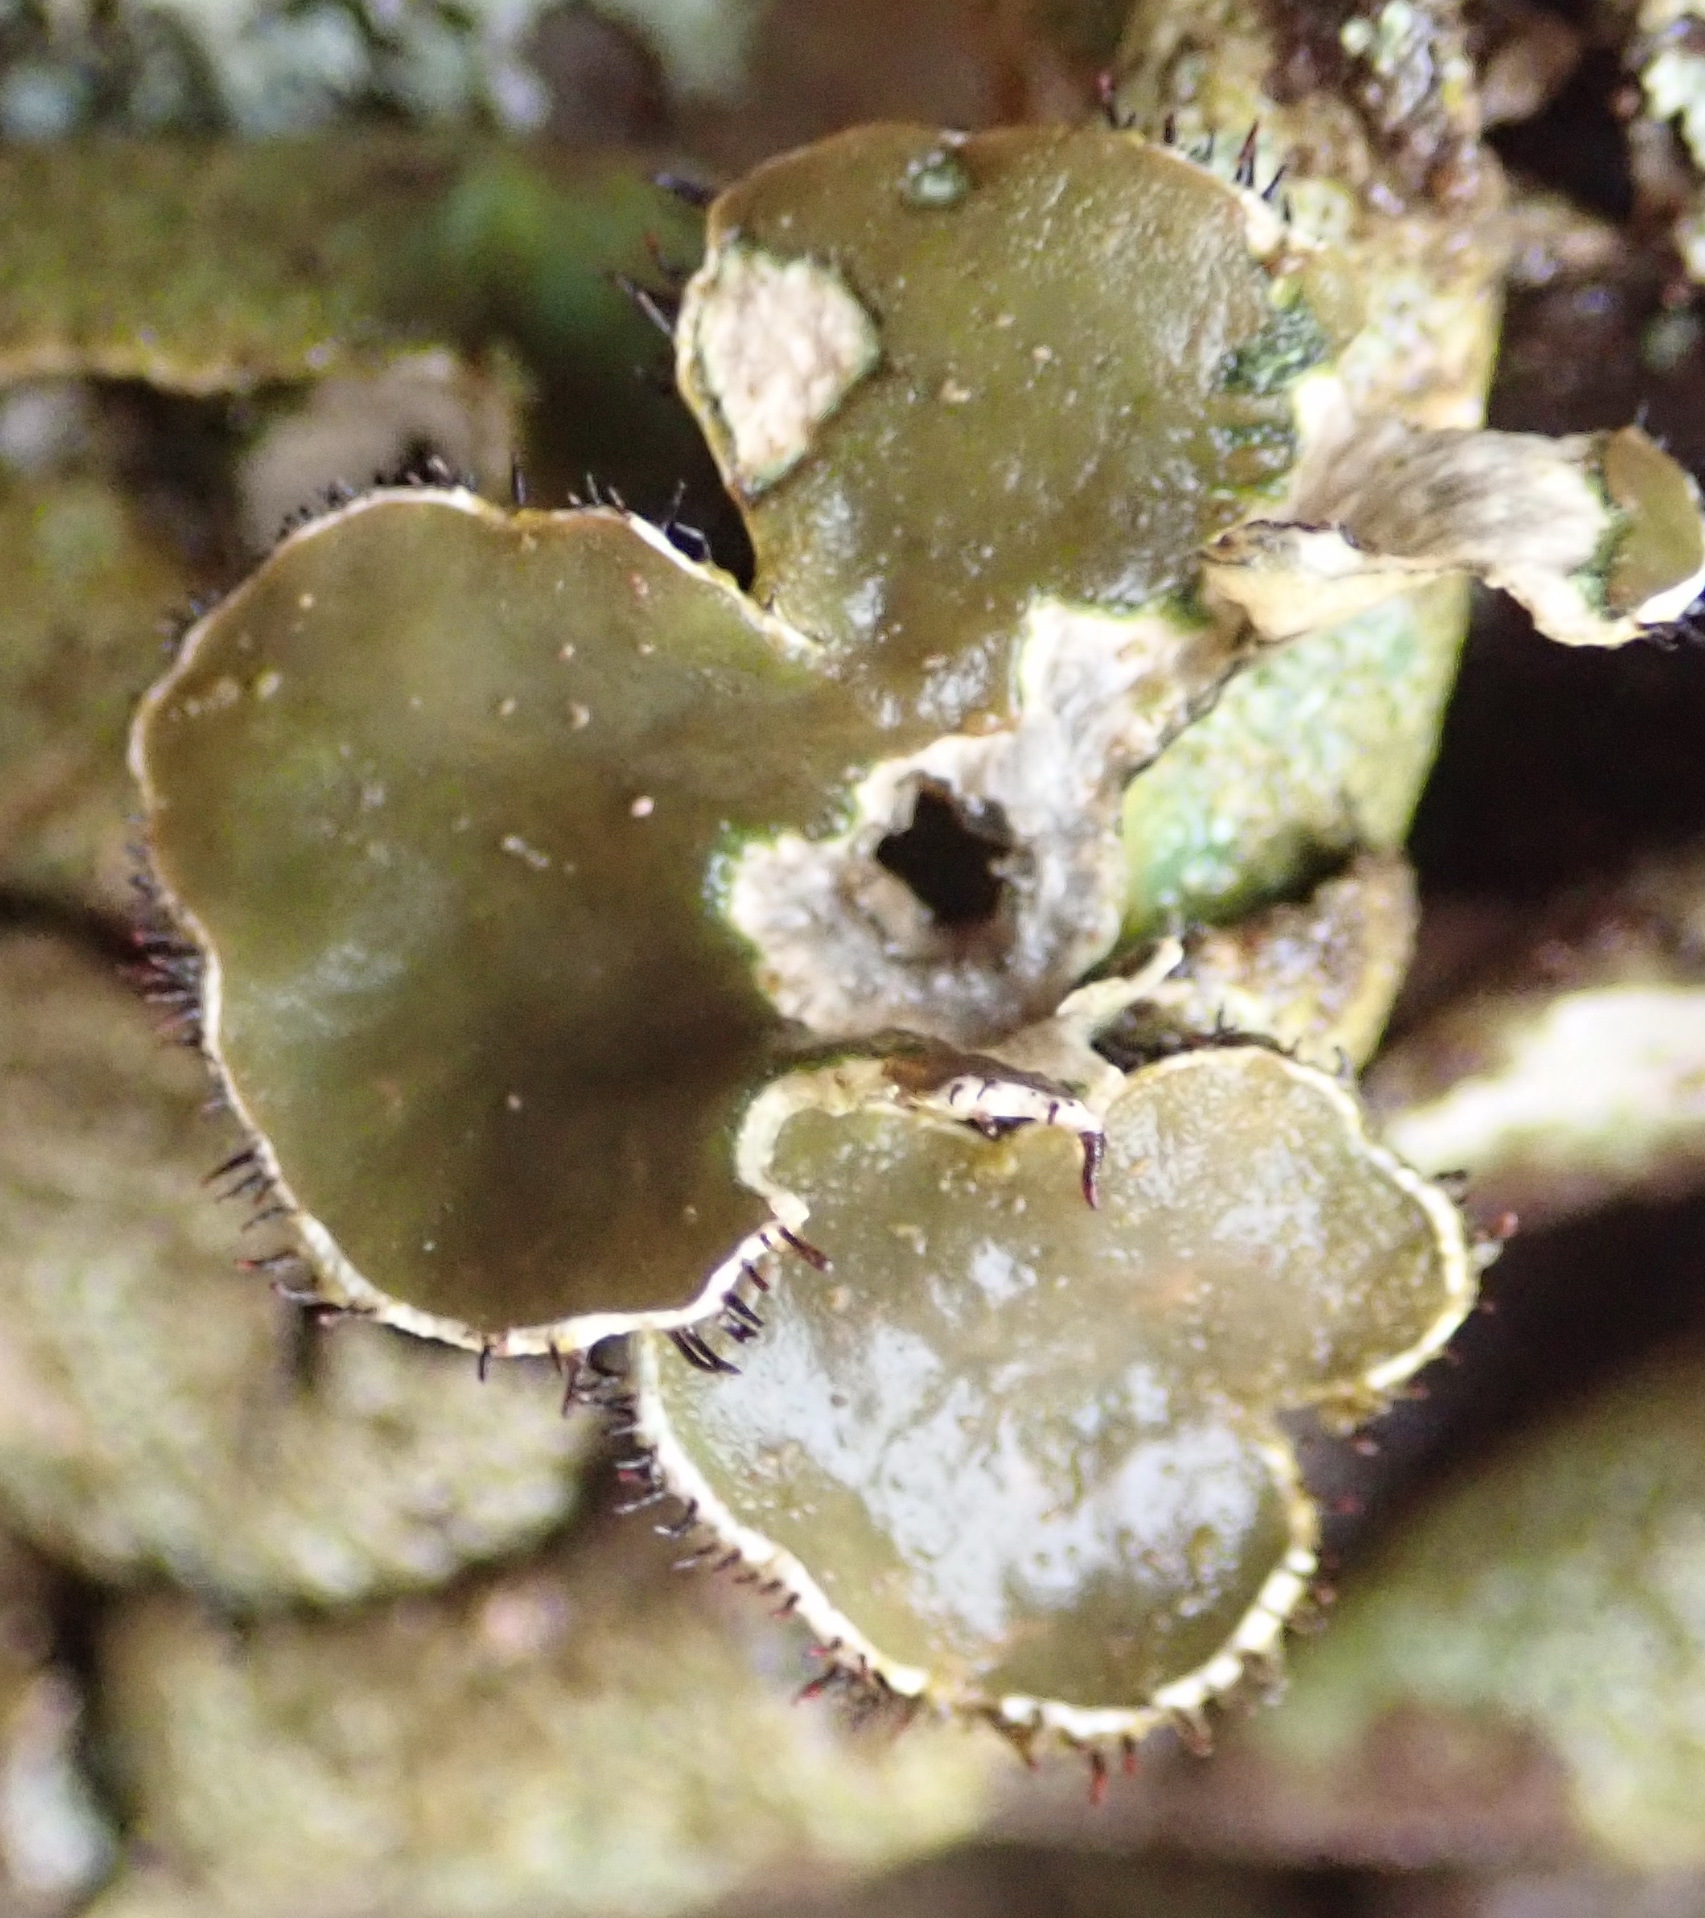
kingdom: Fungi
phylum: Ascomycota
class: Lecanoromycetes
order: Lecanorales
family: Parmeliaceae
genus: Xanthoparmelia
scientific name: Xanthoparmelia hottentotta
